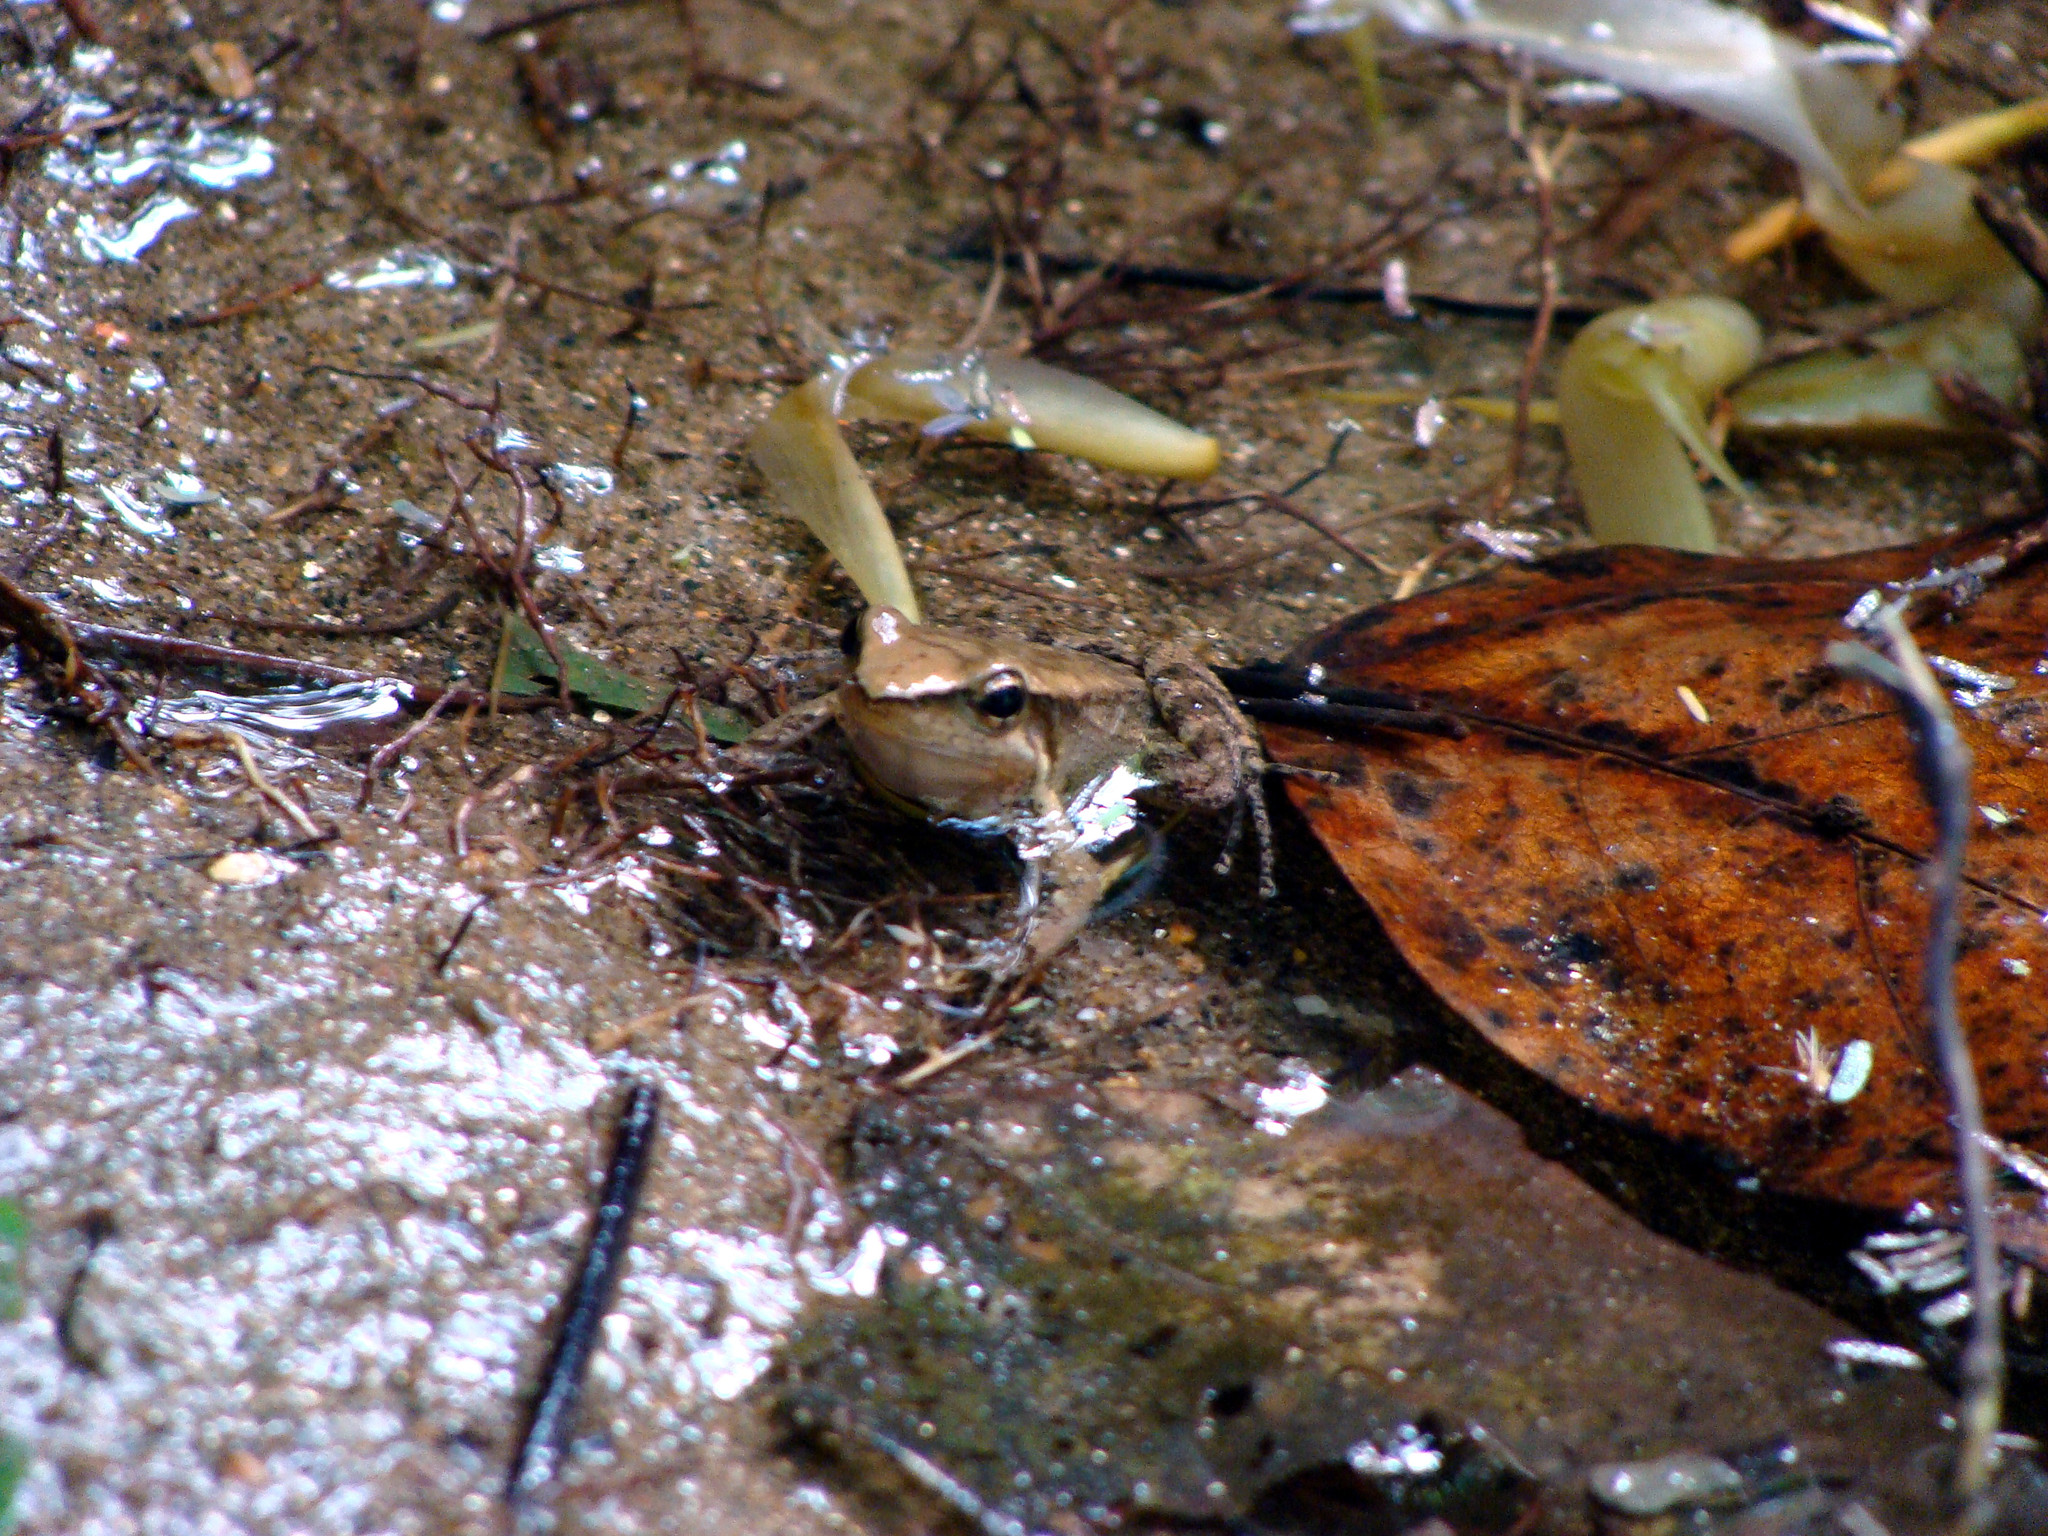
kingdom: Animalia
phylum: Chordata
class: Amphibia
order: Anura
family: Hylodidae
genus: Crossodactylus
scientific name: Crossodactylus gaudichaudii
